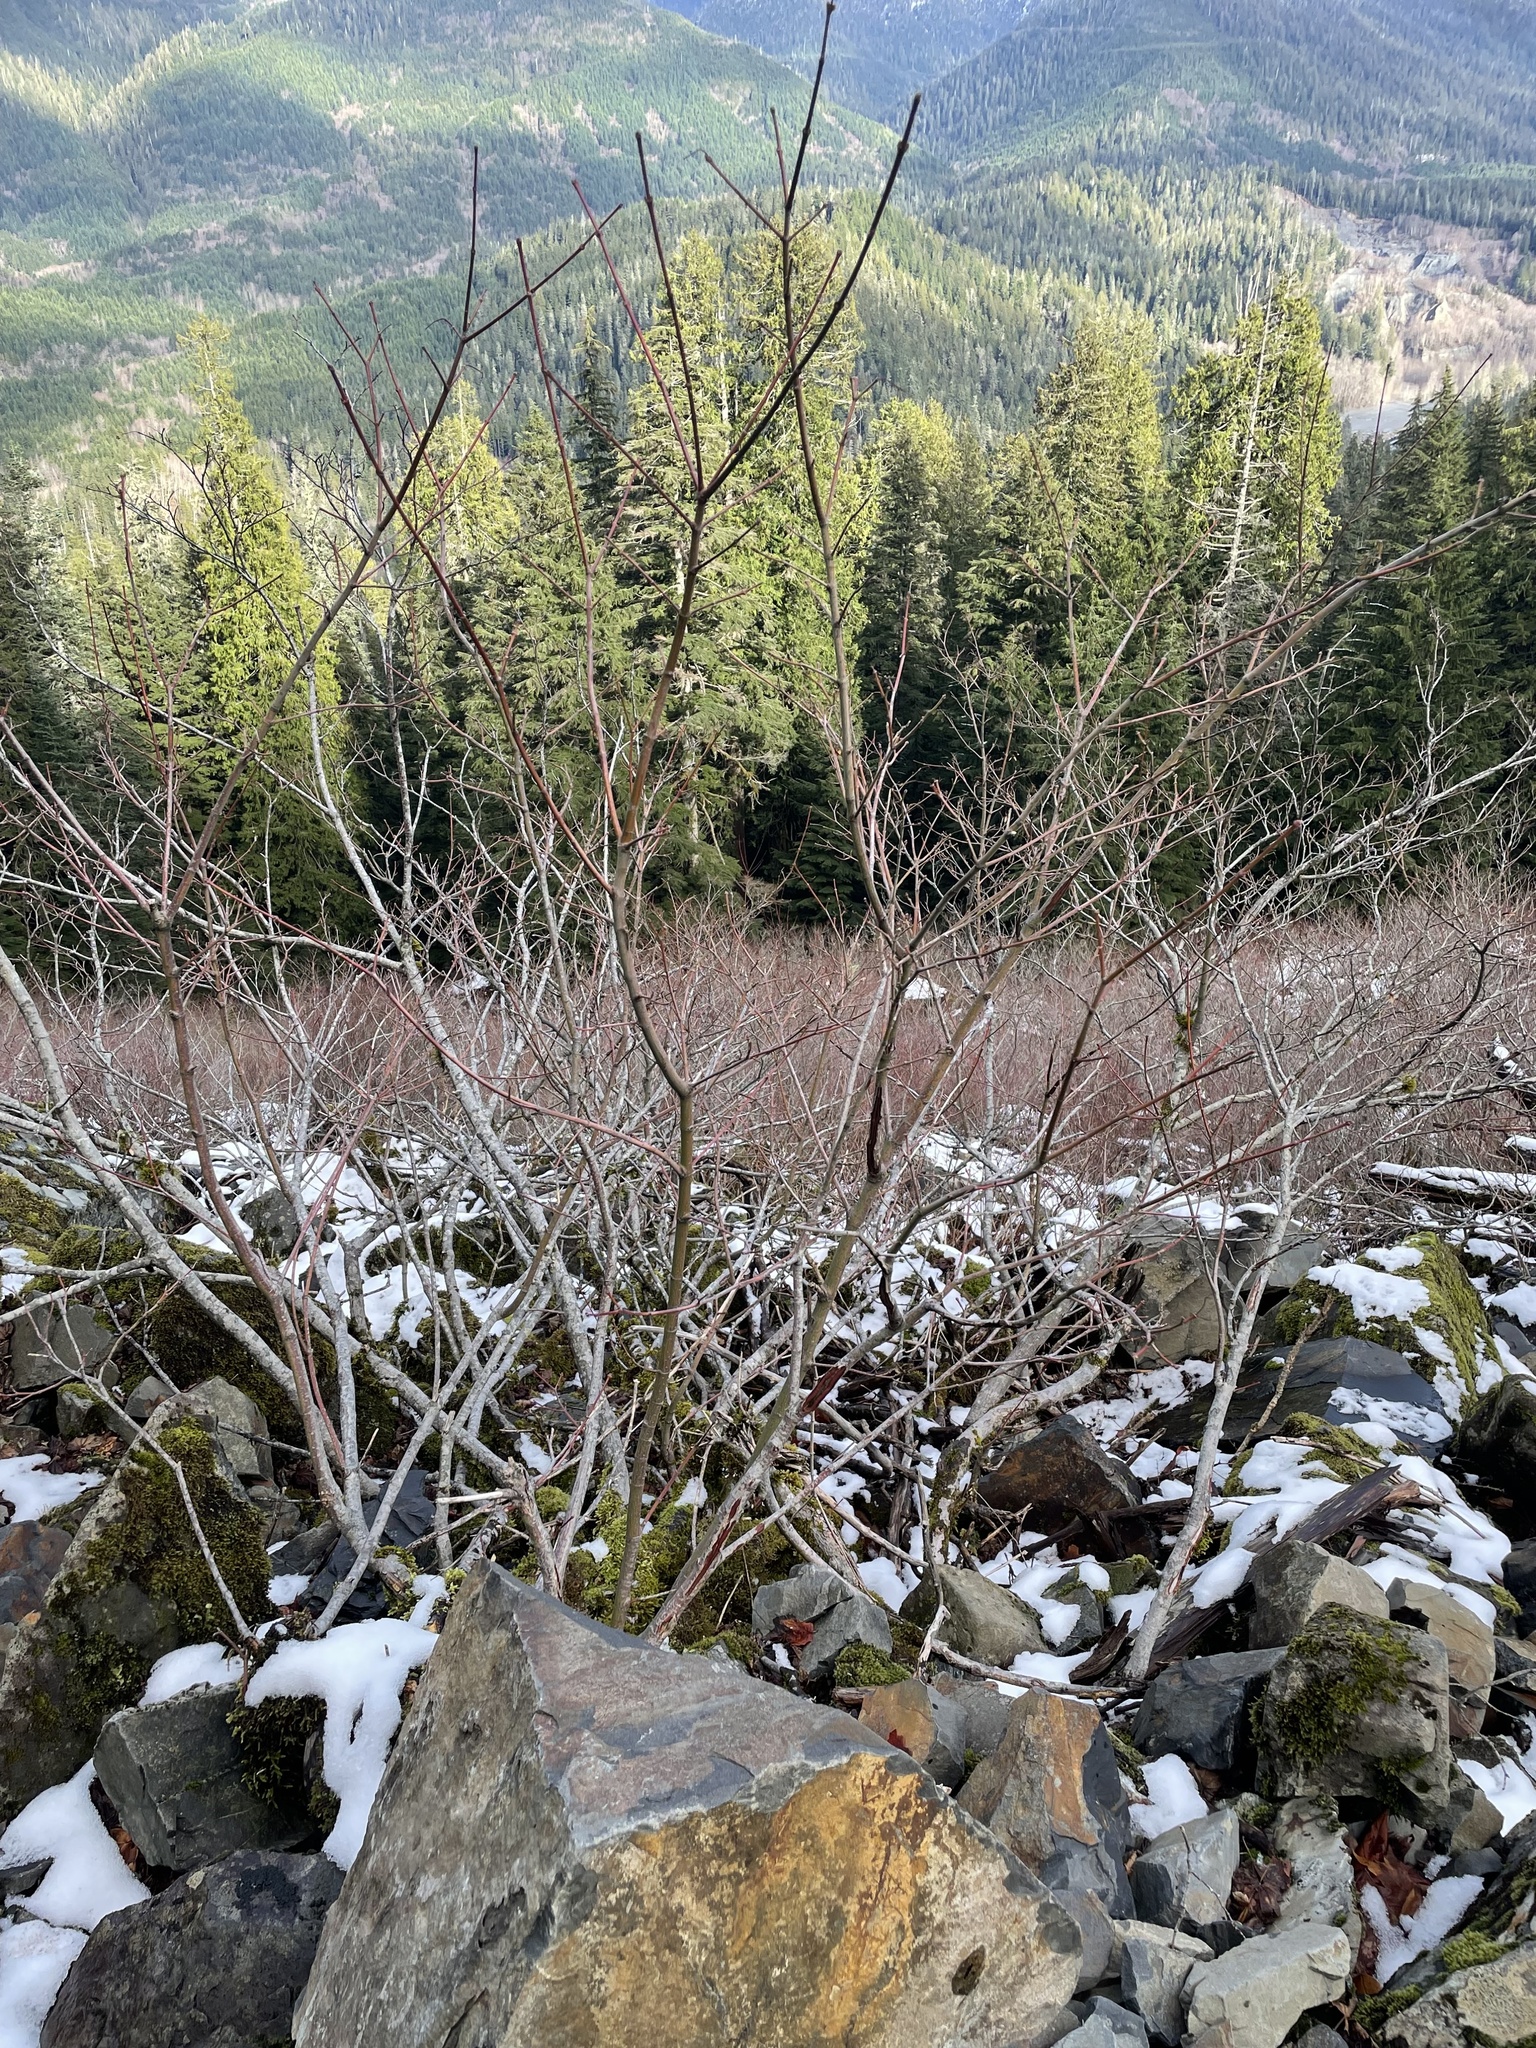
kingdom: Plantae
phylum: Tracheophyta
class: Magnoliopsida
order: Sapindales
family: Sapindaceae
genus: Acer
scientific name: Acer circinatum
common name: Vine maple
